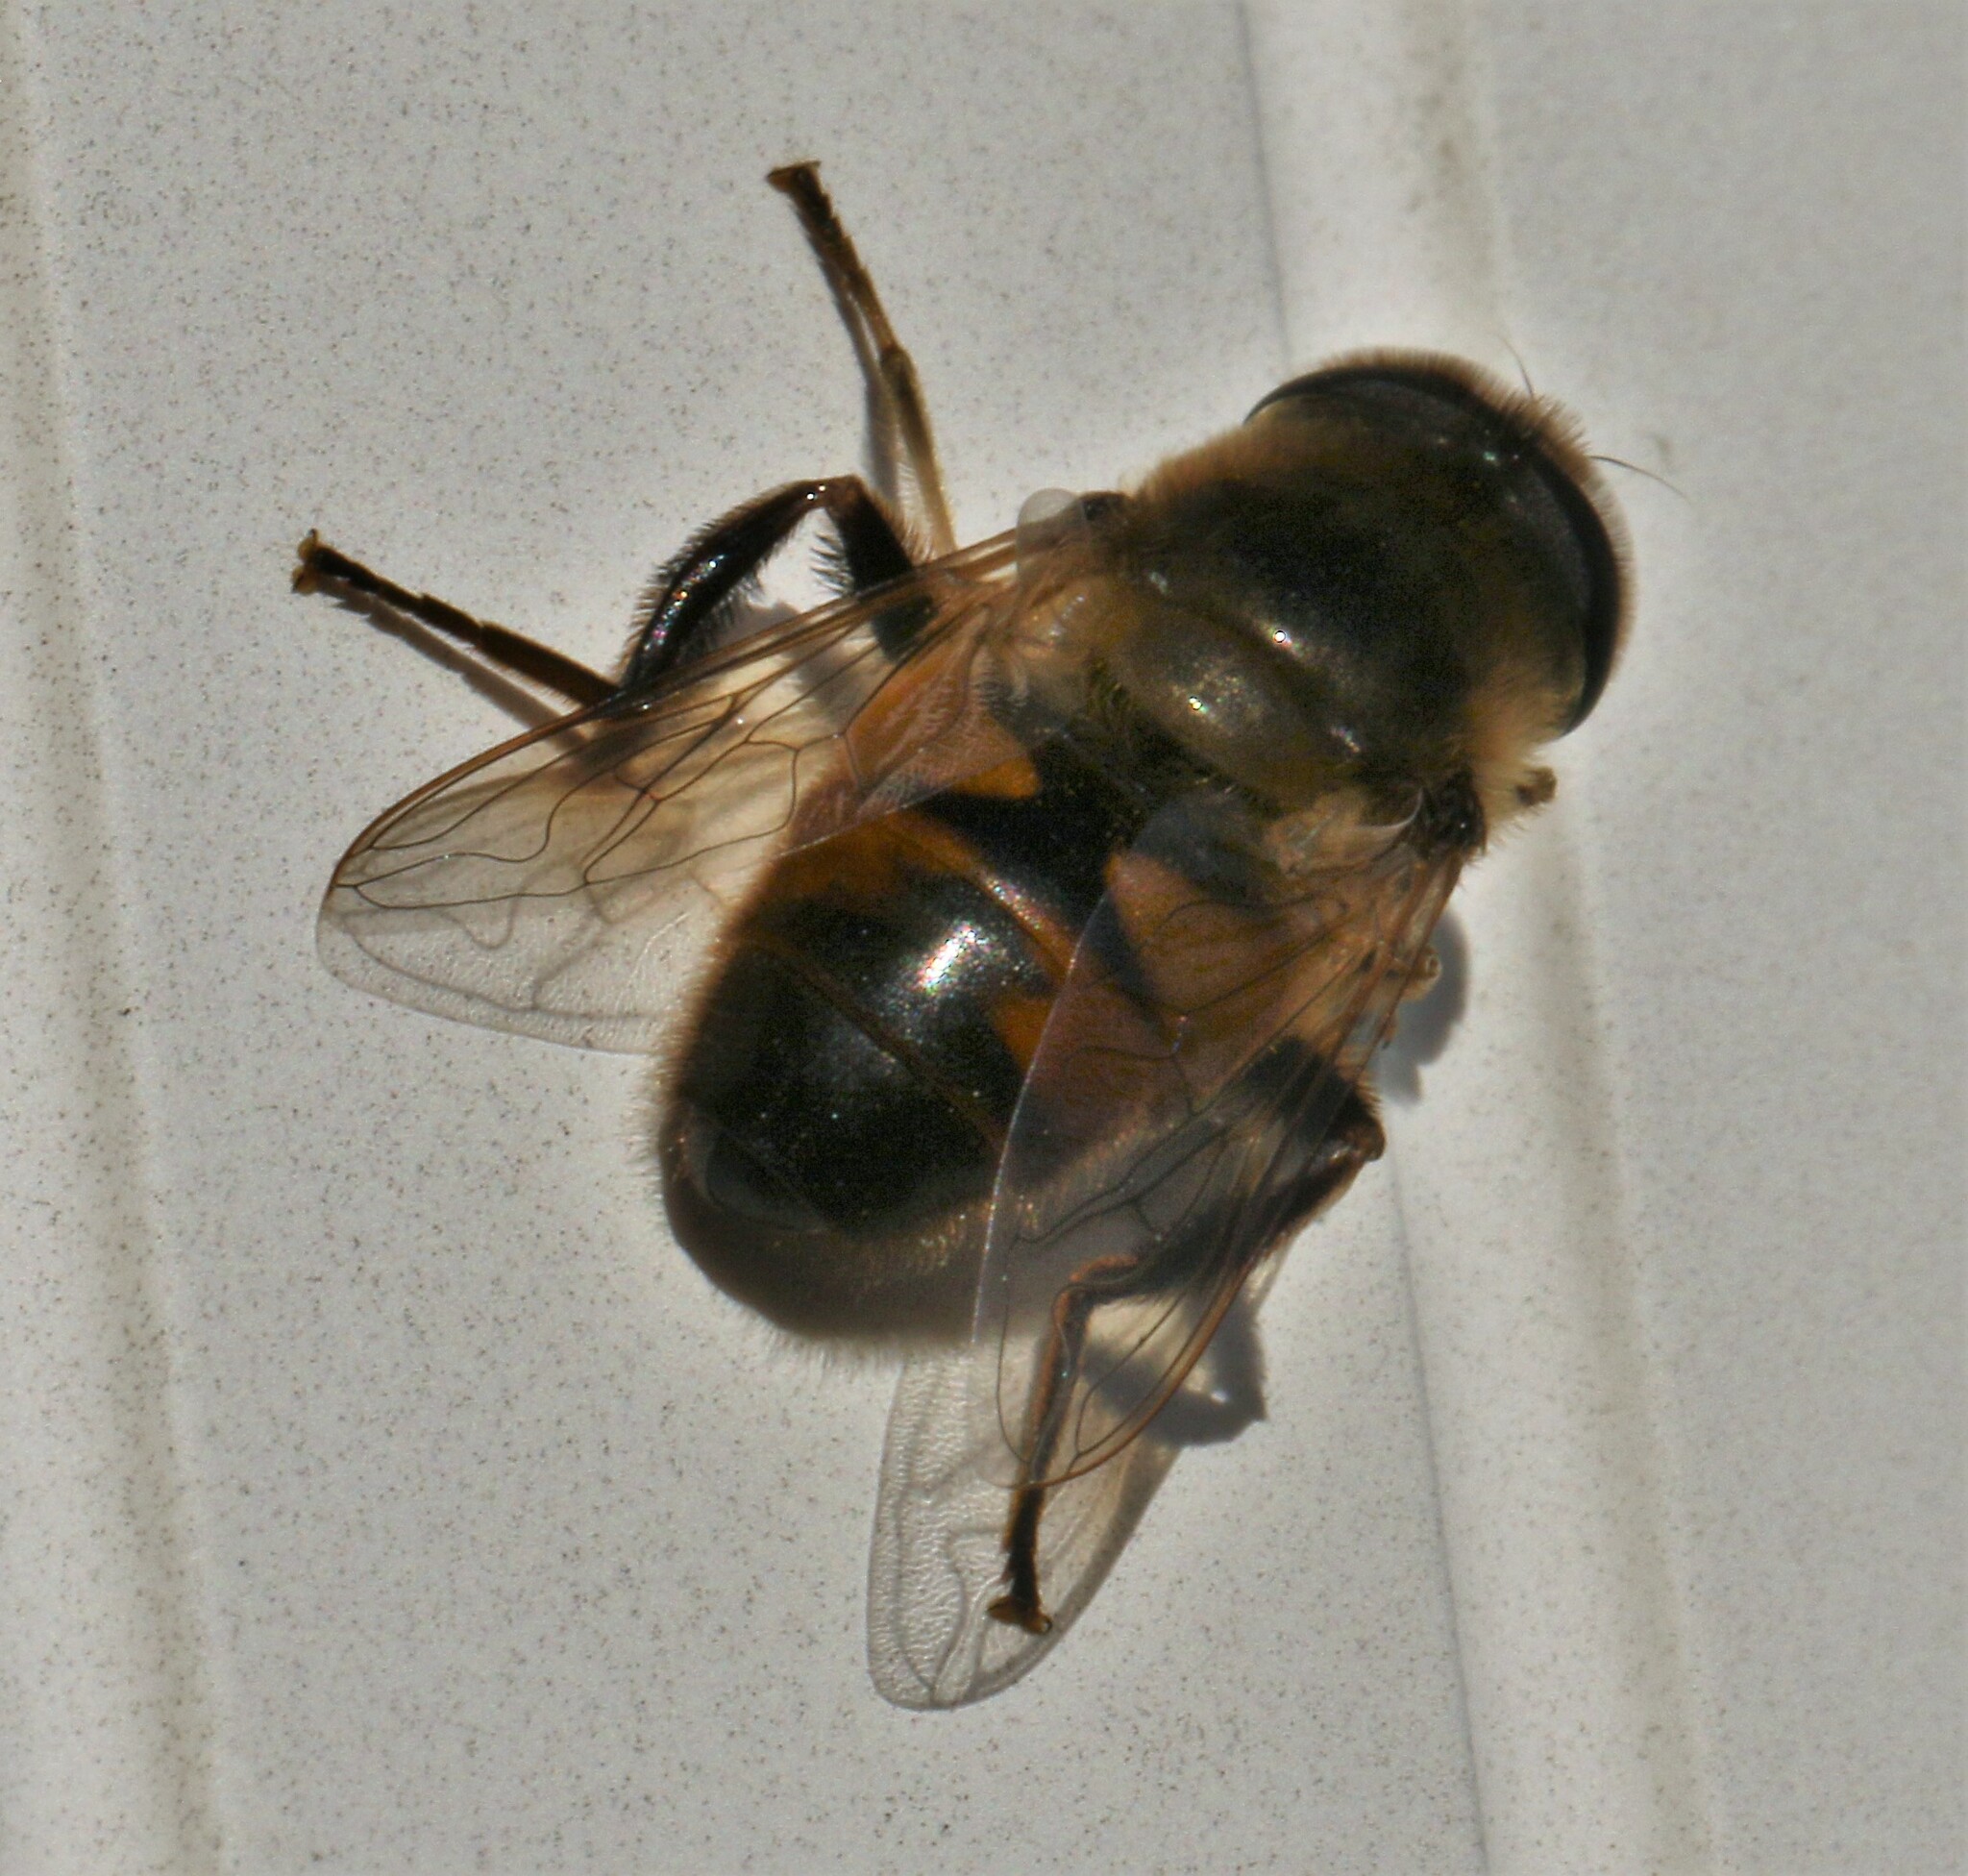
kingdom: Animalia
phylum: Arthropoda
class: Insecta
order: Diptera
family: Syrphidae
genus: Eristalis
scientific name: Eristalis tenax
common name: Drone fly
